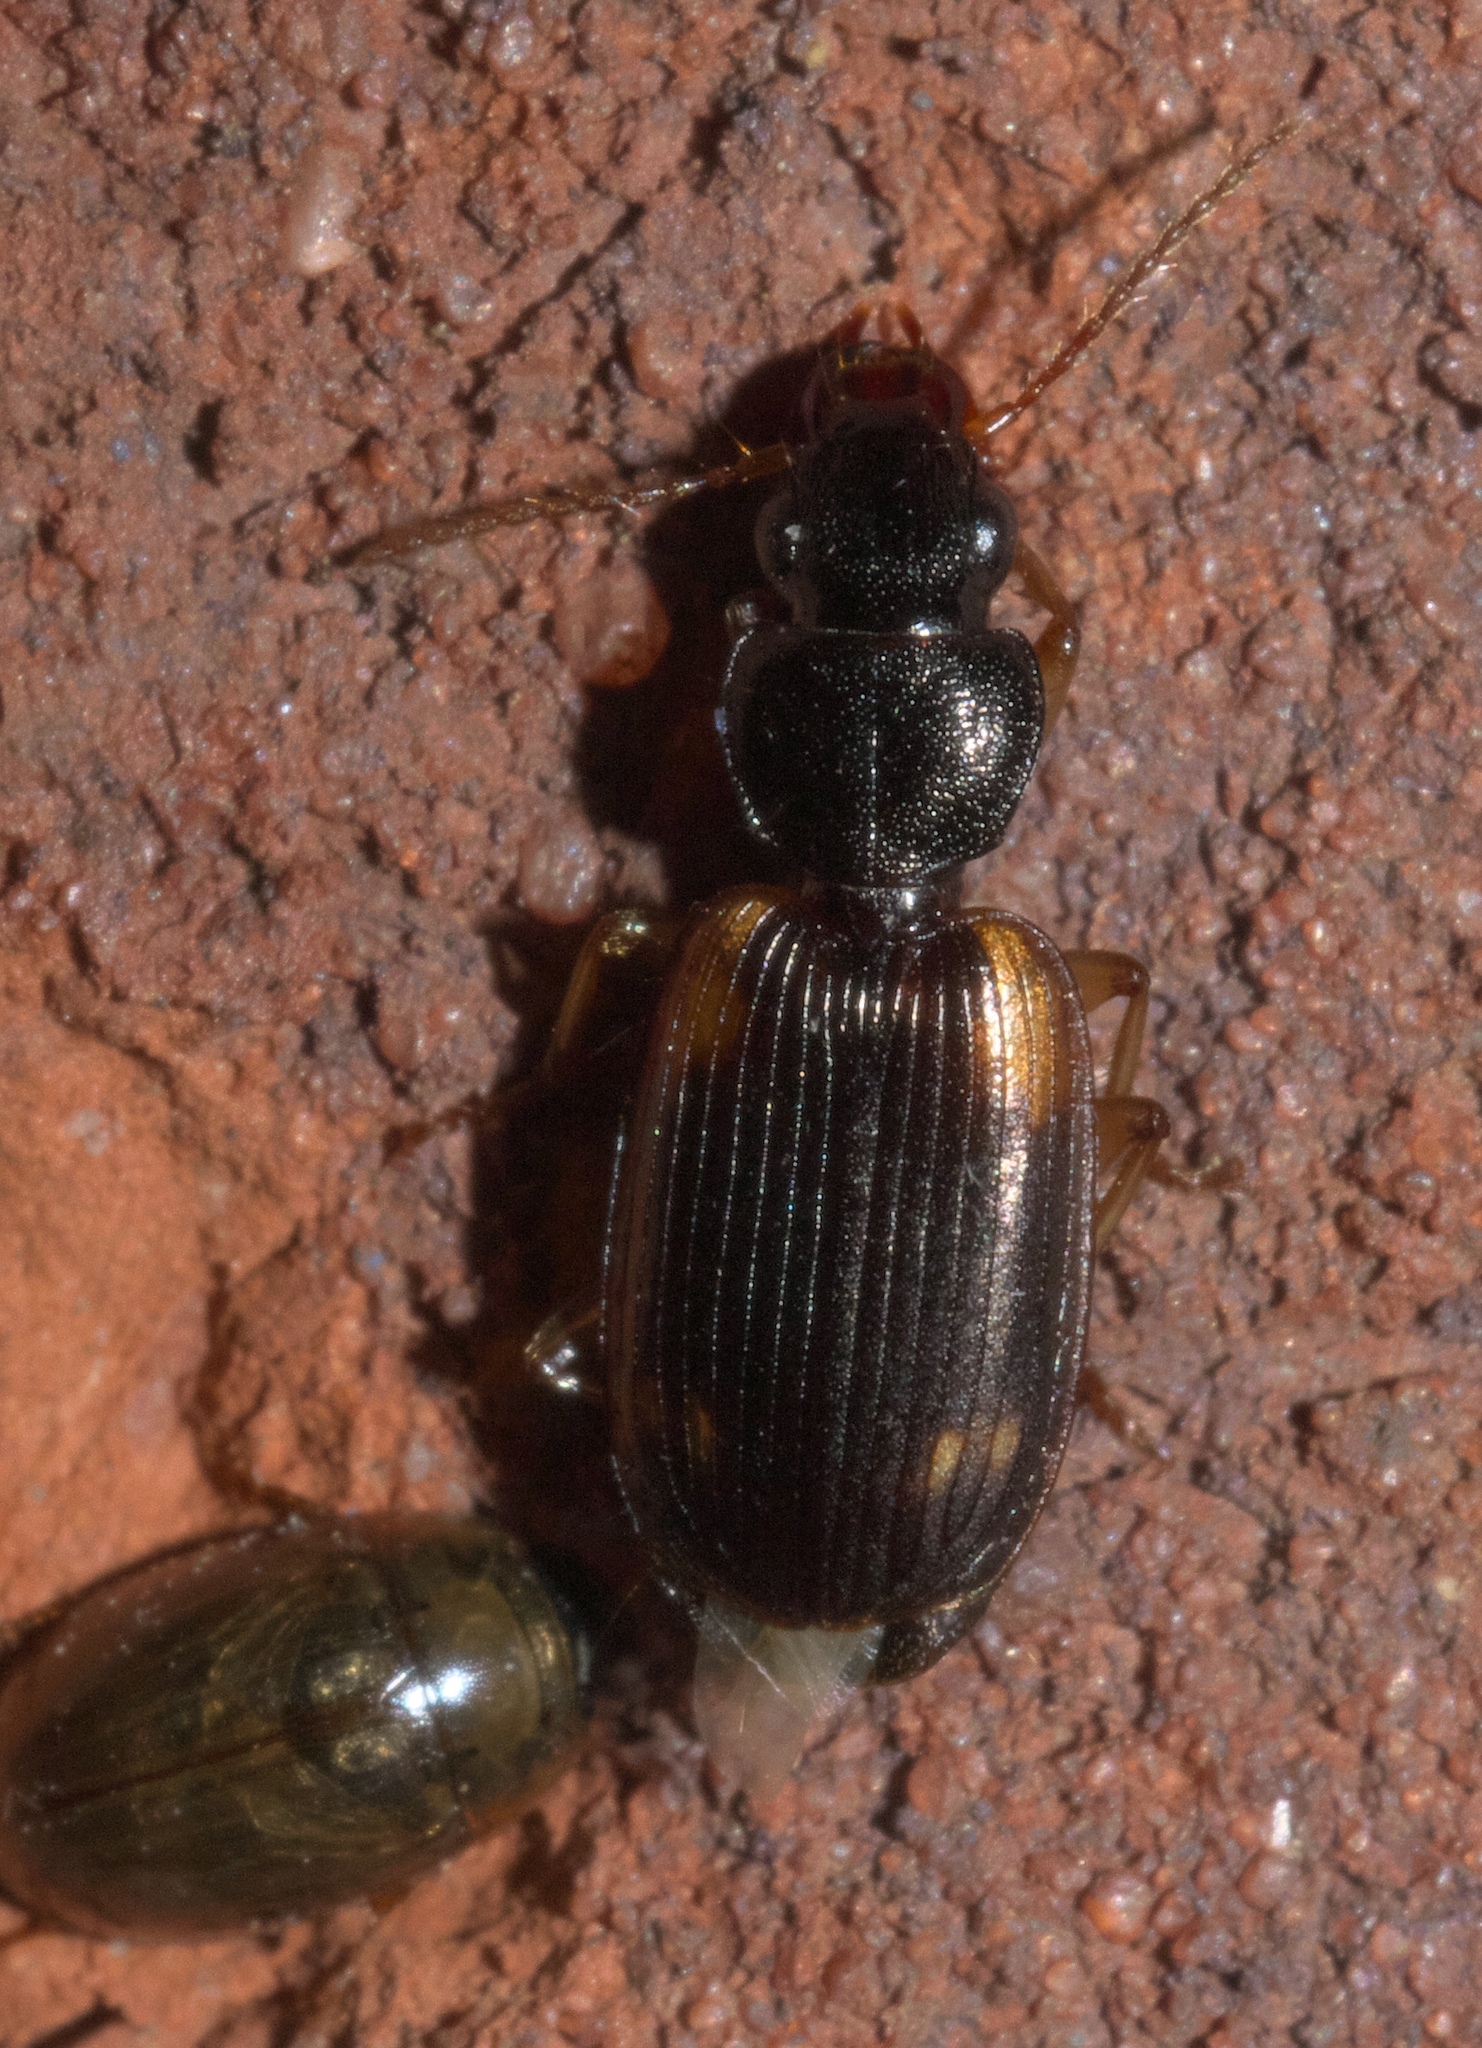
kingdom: Animalia
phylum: Arthropoda
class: Insecta
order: Coleoptera
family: Carabidae
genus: Apenes
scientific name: Apenes sinuata
